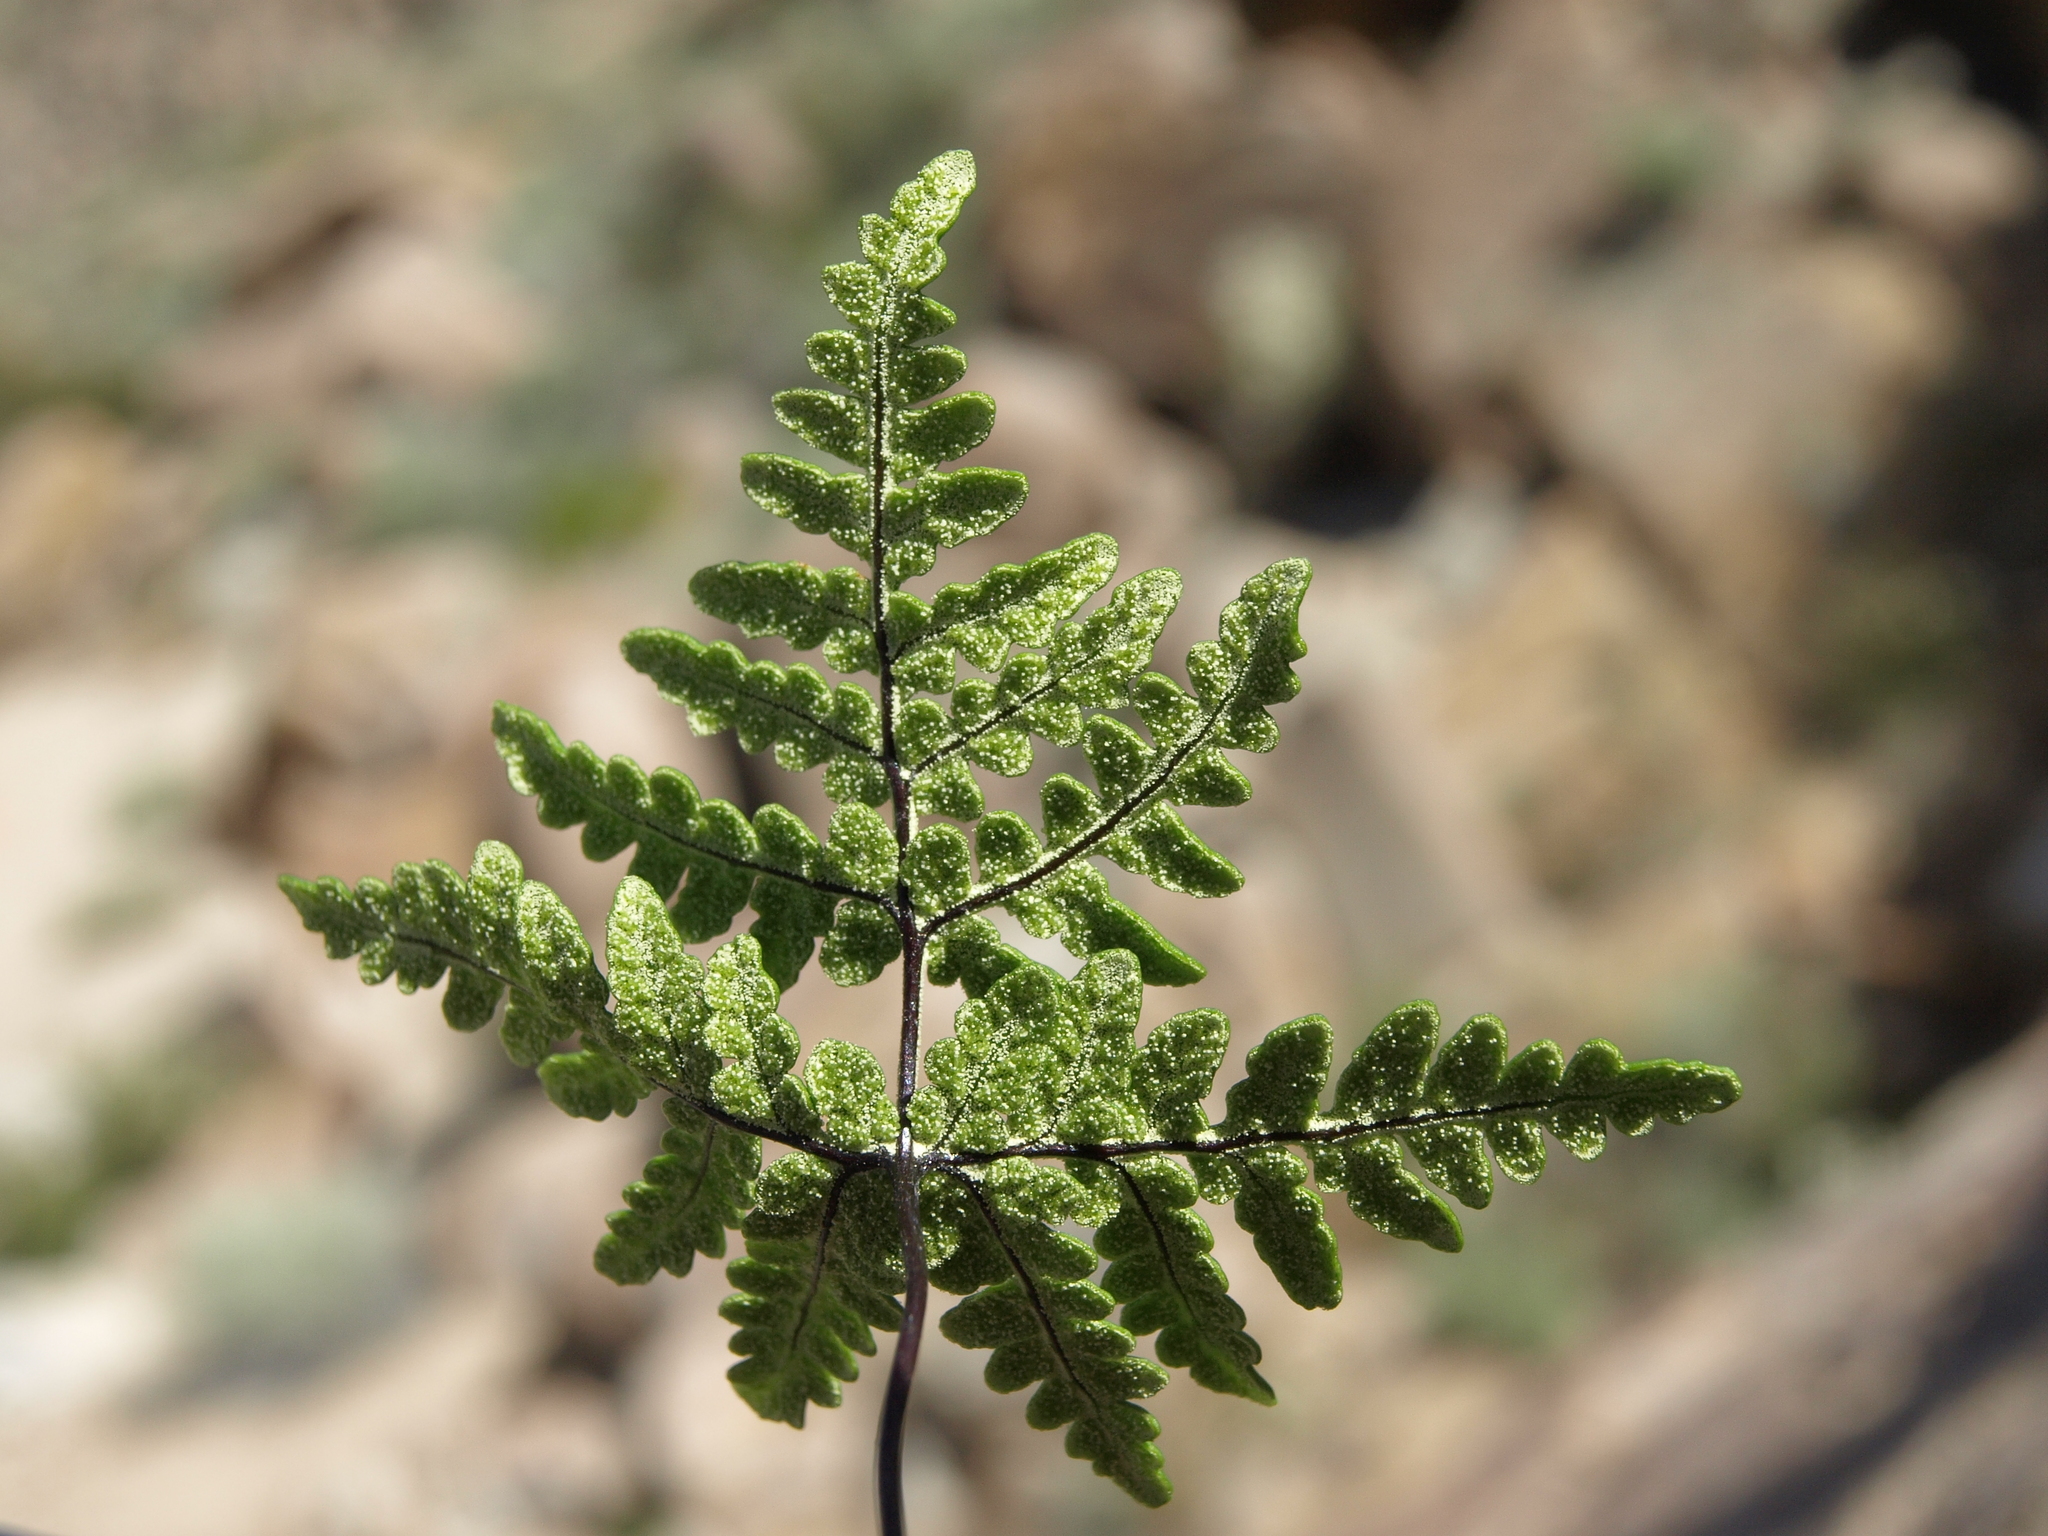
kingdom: Plantae
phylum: Tracheophyta
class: Polypodiopsida
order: Polypodiales
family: Pteridaceae
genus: Pentagramma
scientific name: Pentagramma triangularis
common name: Gold fern
